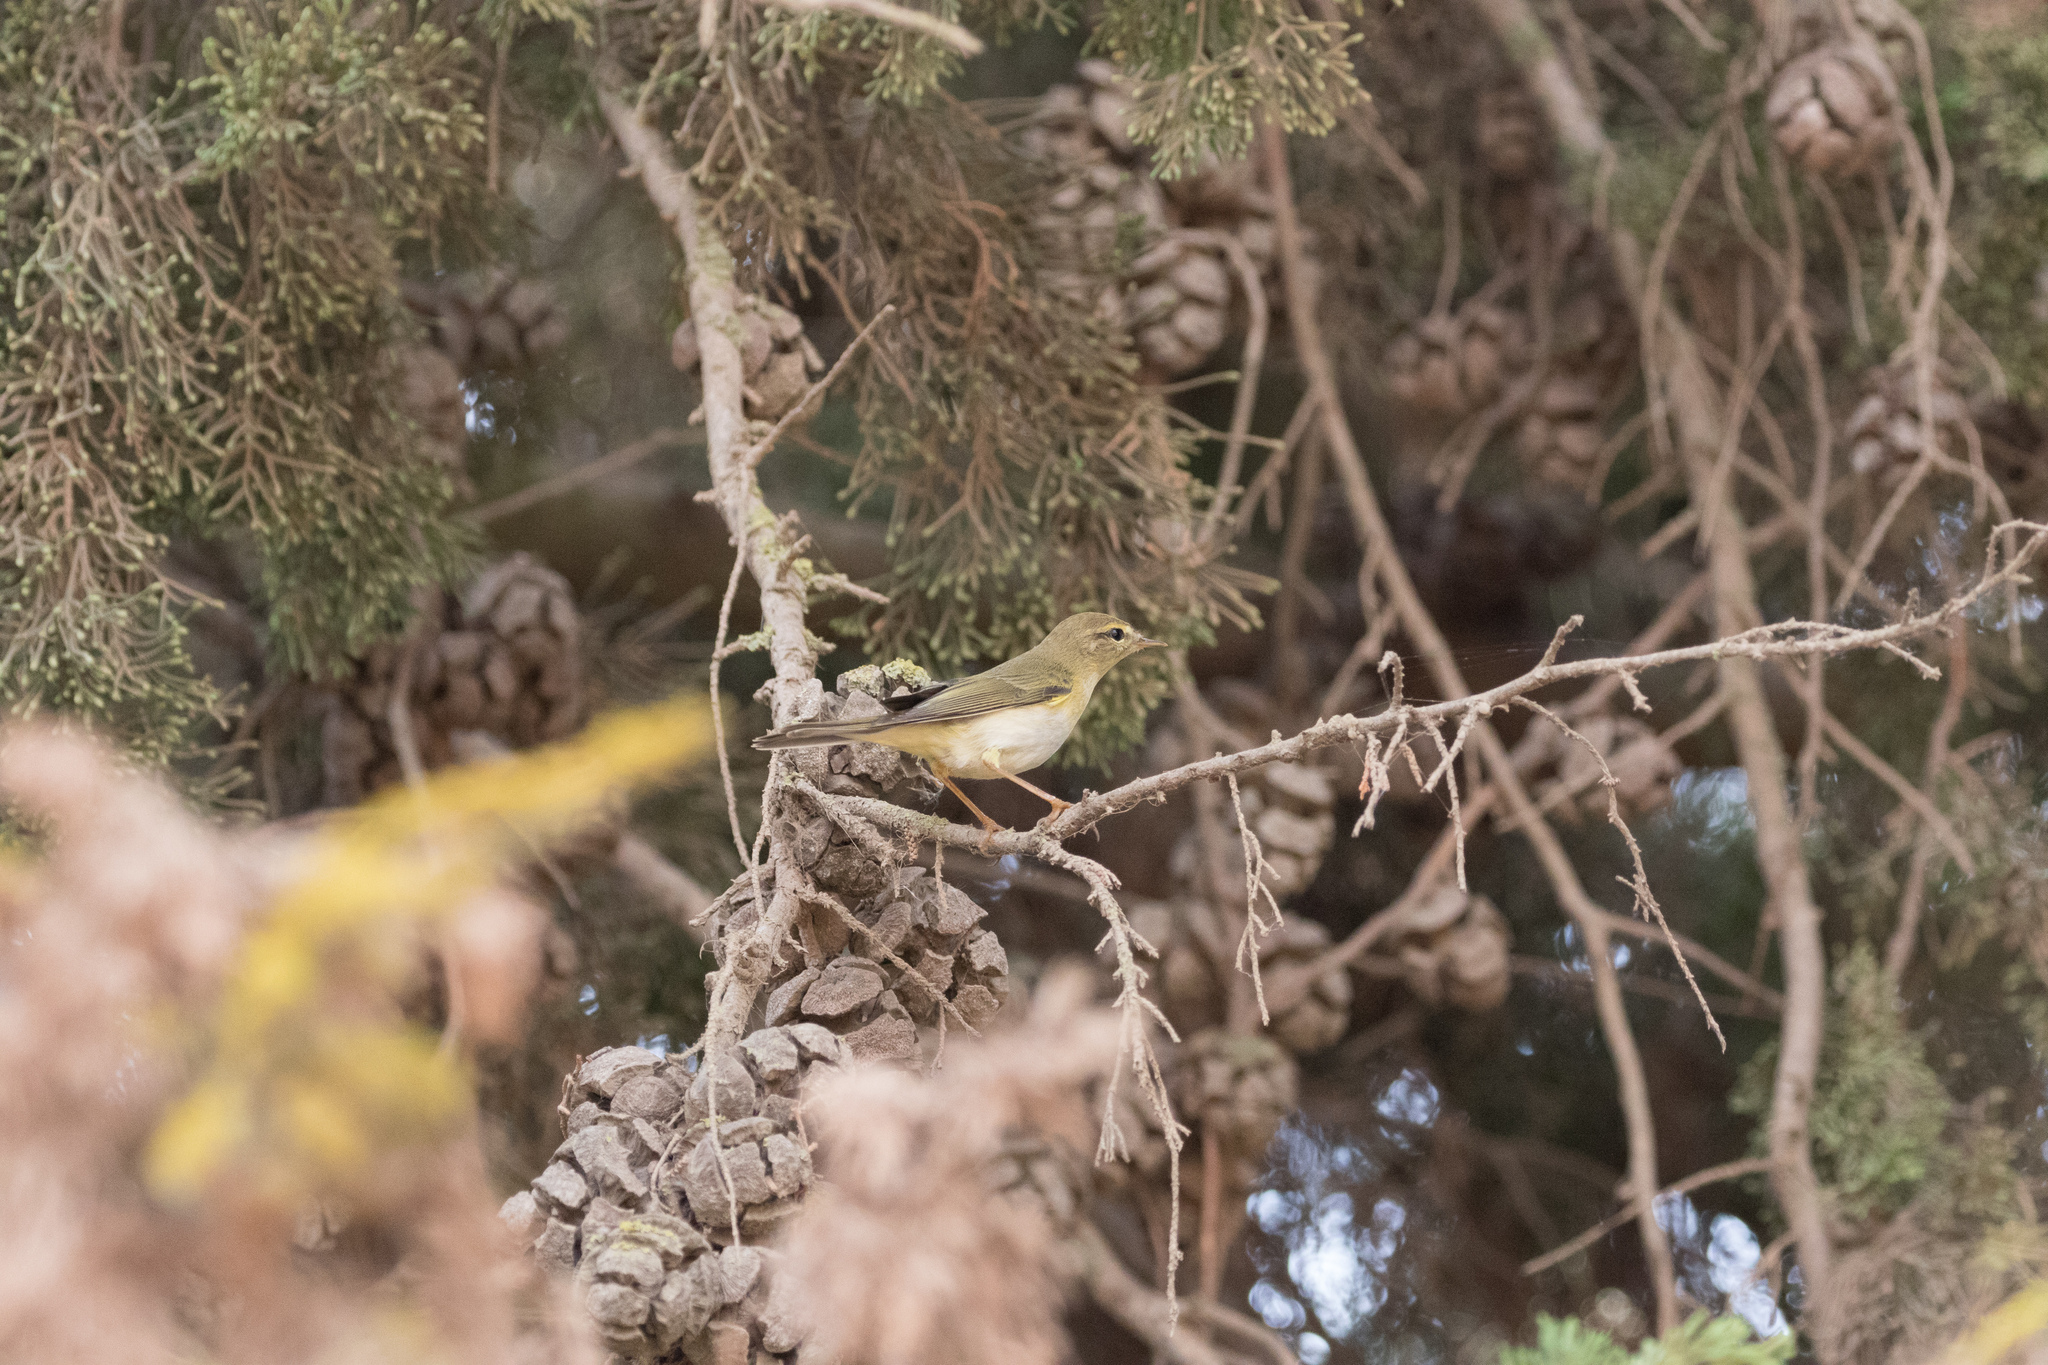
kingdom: Animalia
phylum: Chordata
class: Aves
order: Passeriformes
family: Phylloscopidae
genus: Phylloscopus
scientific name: Phylloscopus trochilus
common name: Willow warbler
